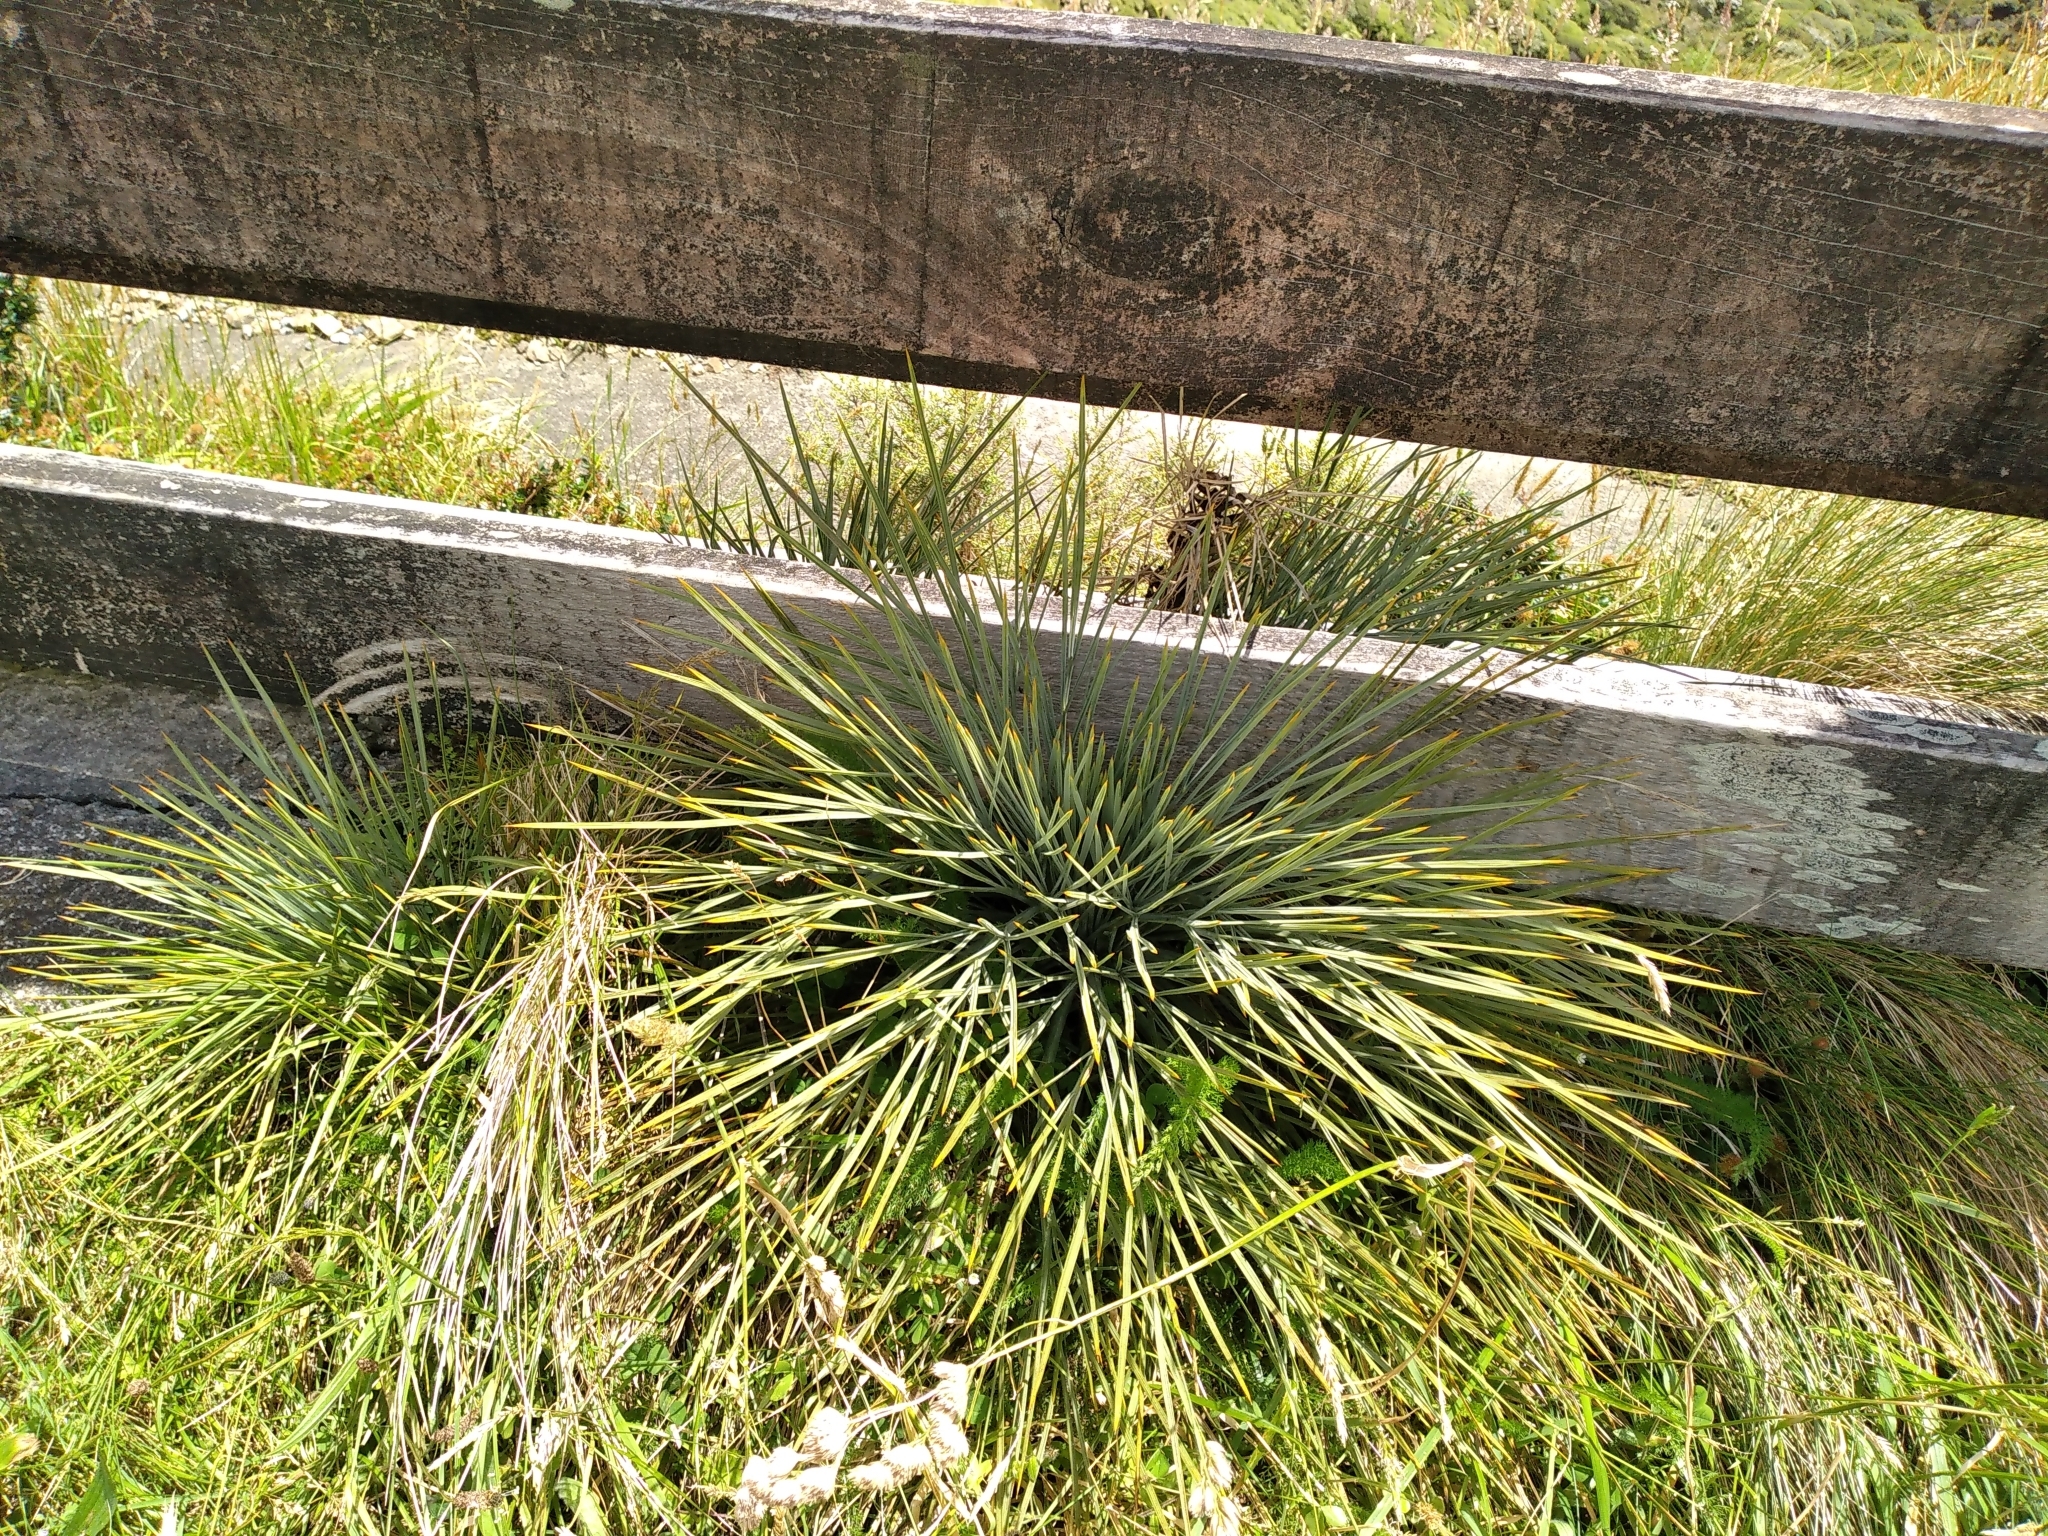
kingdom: Plantae
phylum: Tracheophyta
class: Magnoliopsida
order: Apiales
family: Apiaceae
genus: Aciphylla
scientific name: Aciphylla squarrosa
